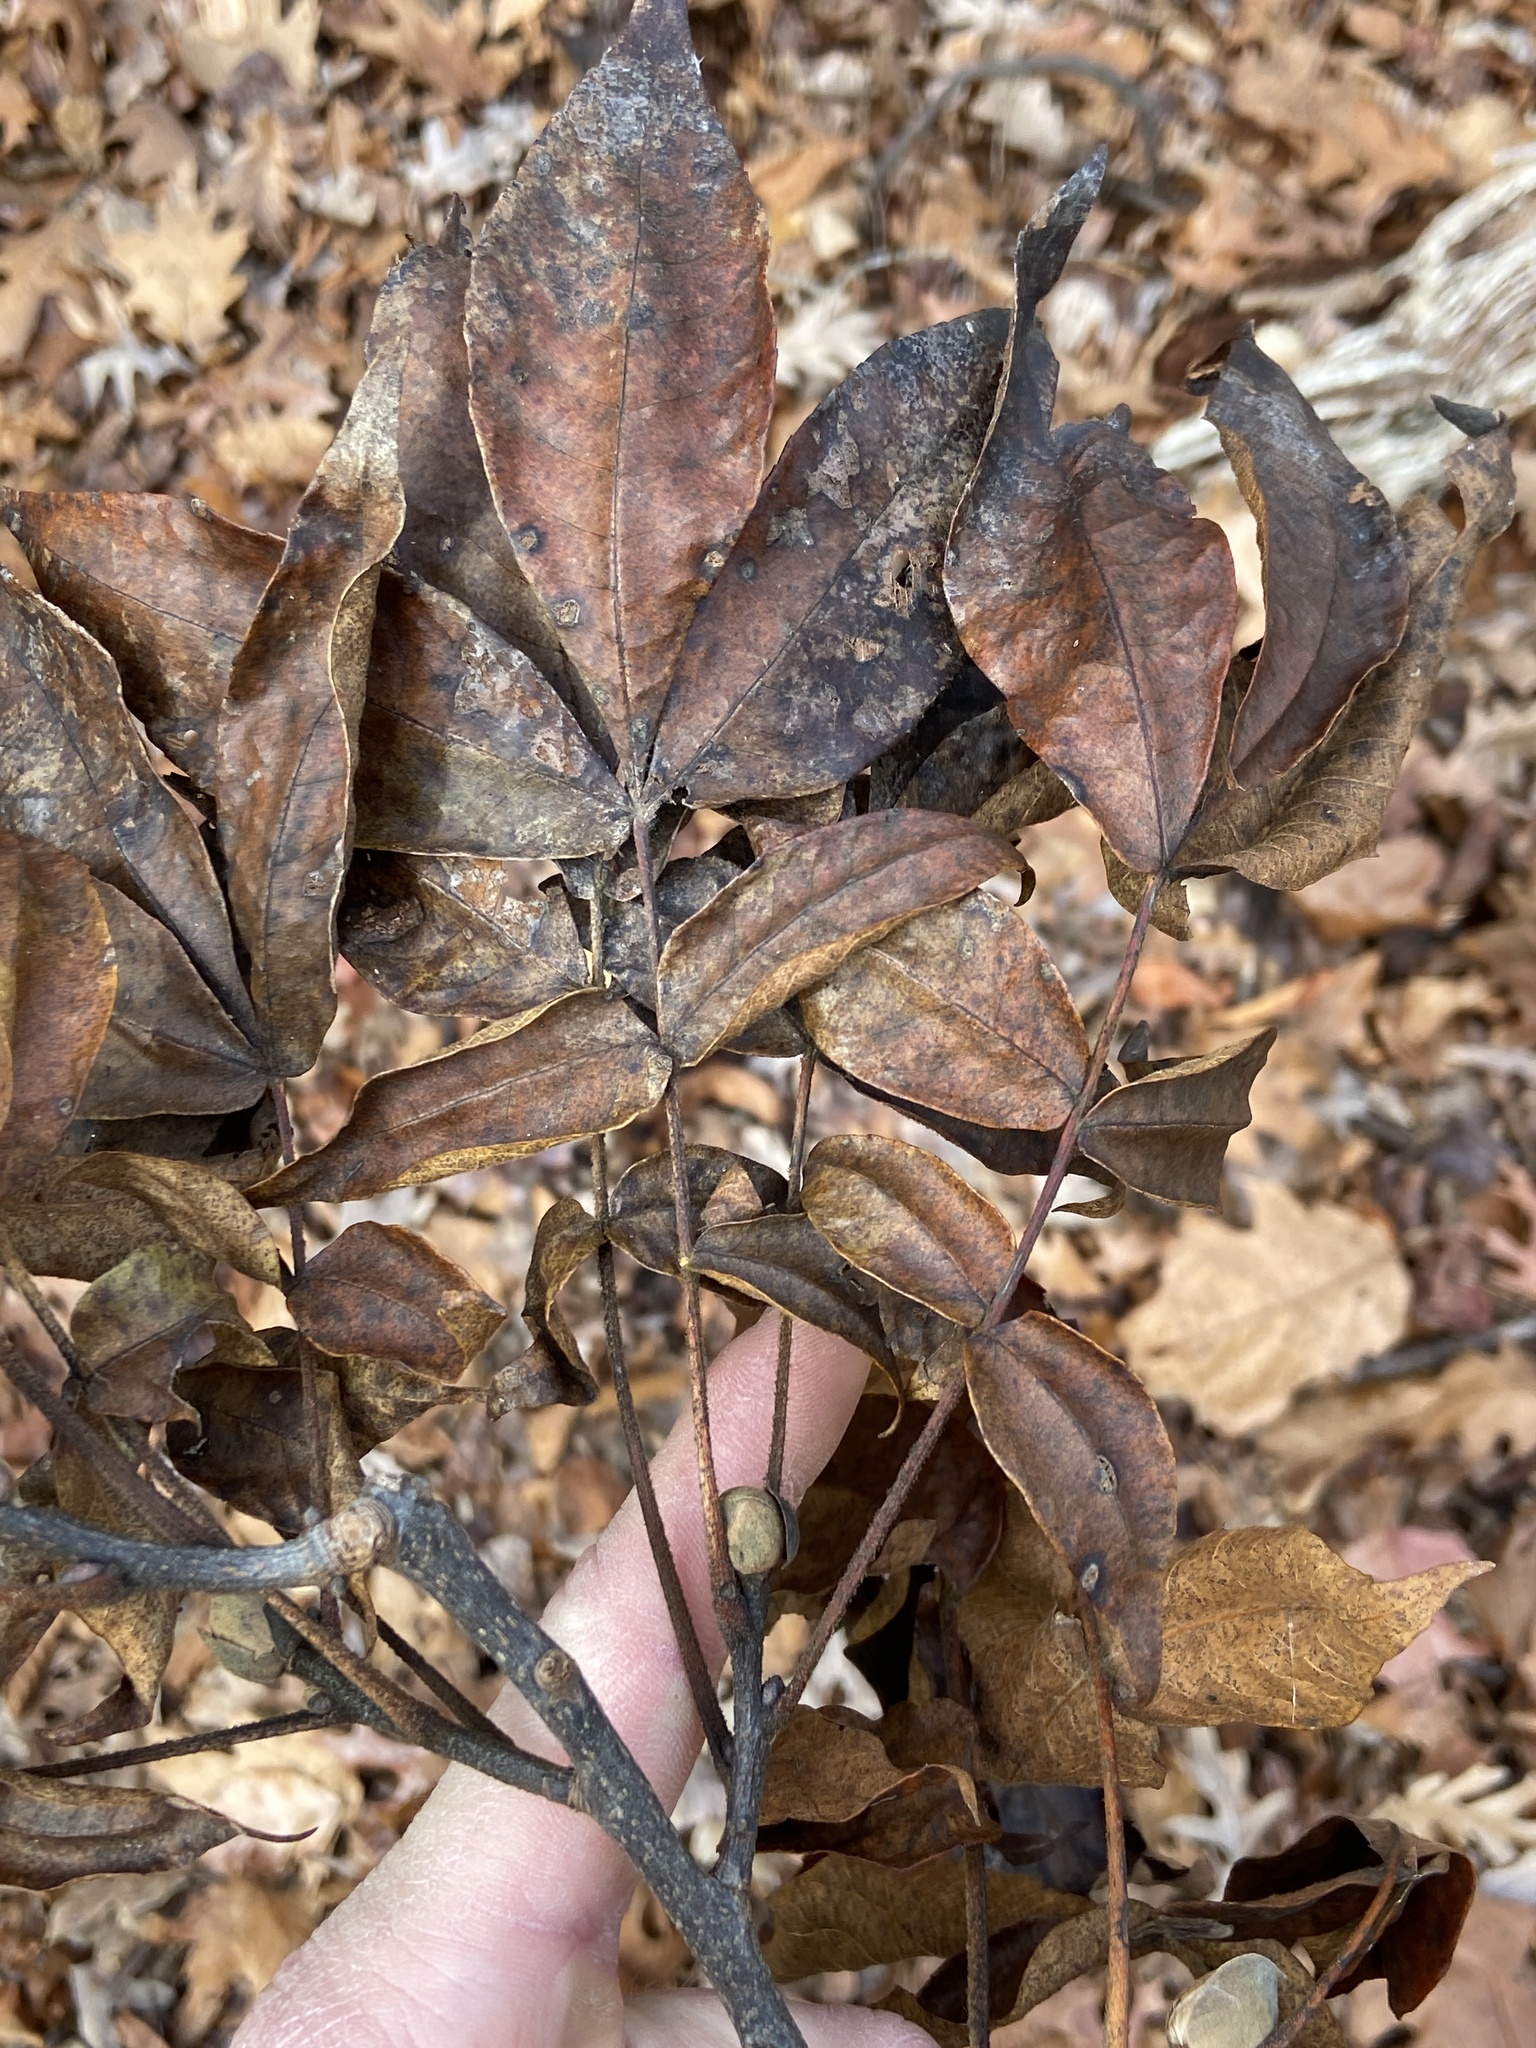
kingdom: Plantae
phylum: Tracheophyta
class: Magnoliopsida
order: Fagales
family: Juglandaceae
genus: Carya
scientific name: Carya alba
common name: Mockernut hickory
